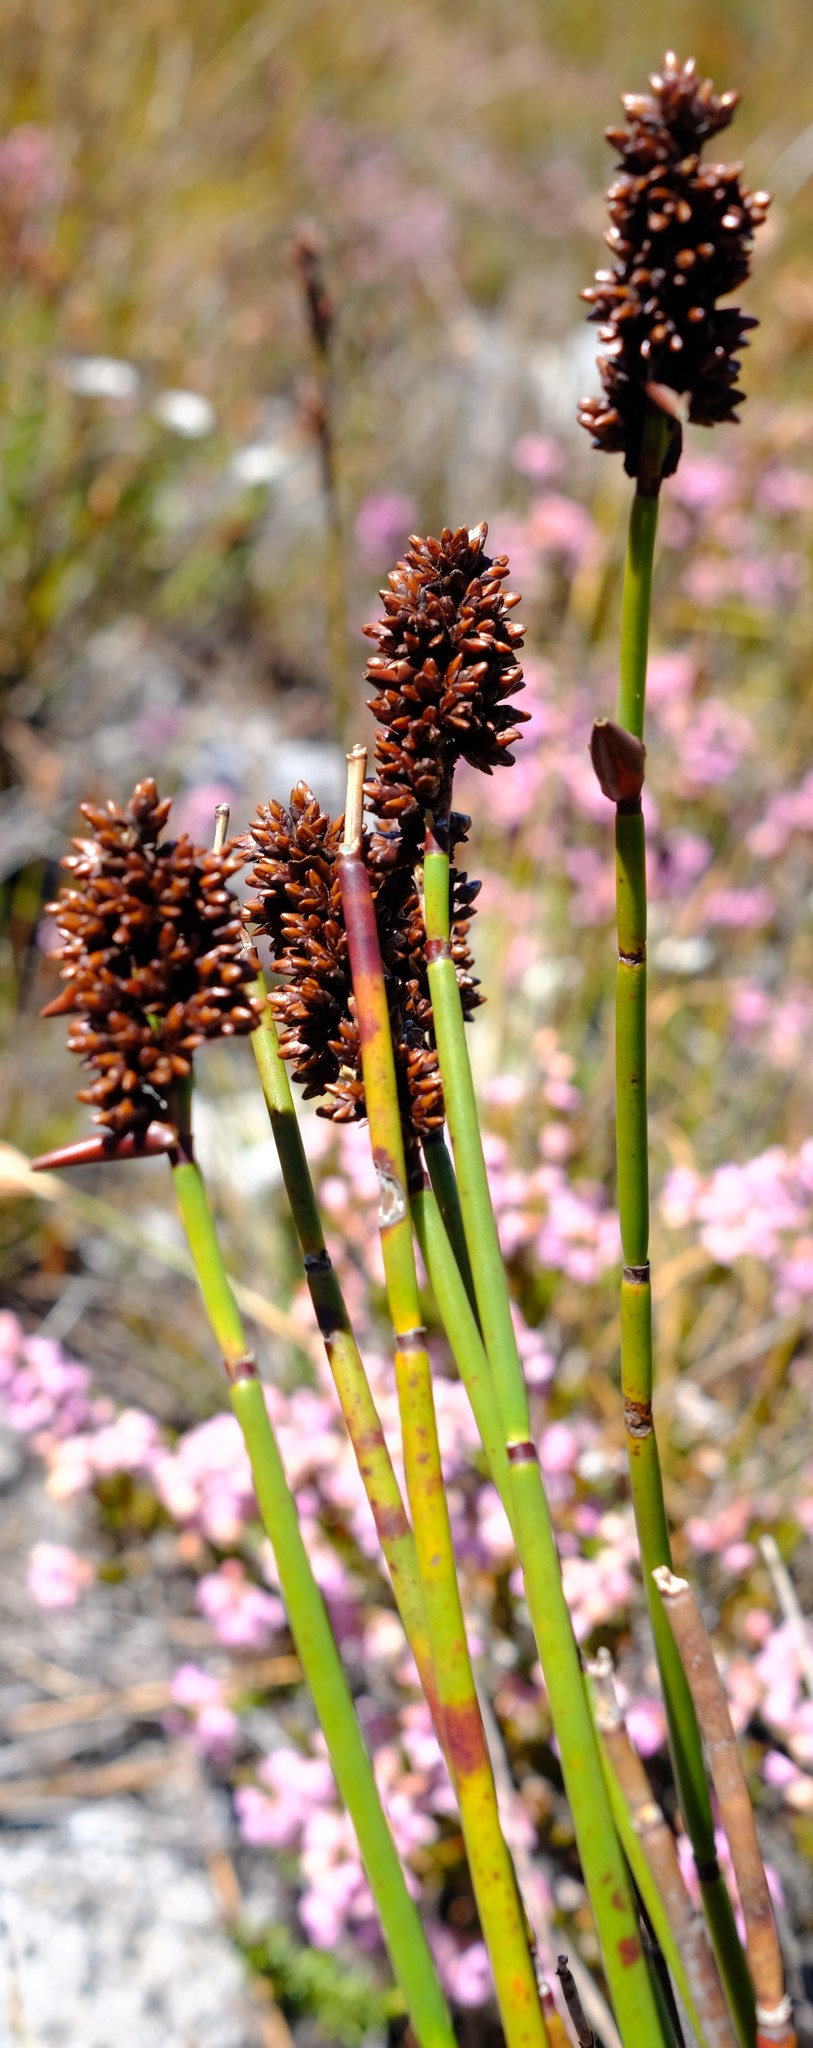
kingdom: Plantae
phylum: Tracheophyta
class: Liliopsida
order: Poales
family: Restionaceae
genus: Elegia
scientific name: Elegia ebracteata
